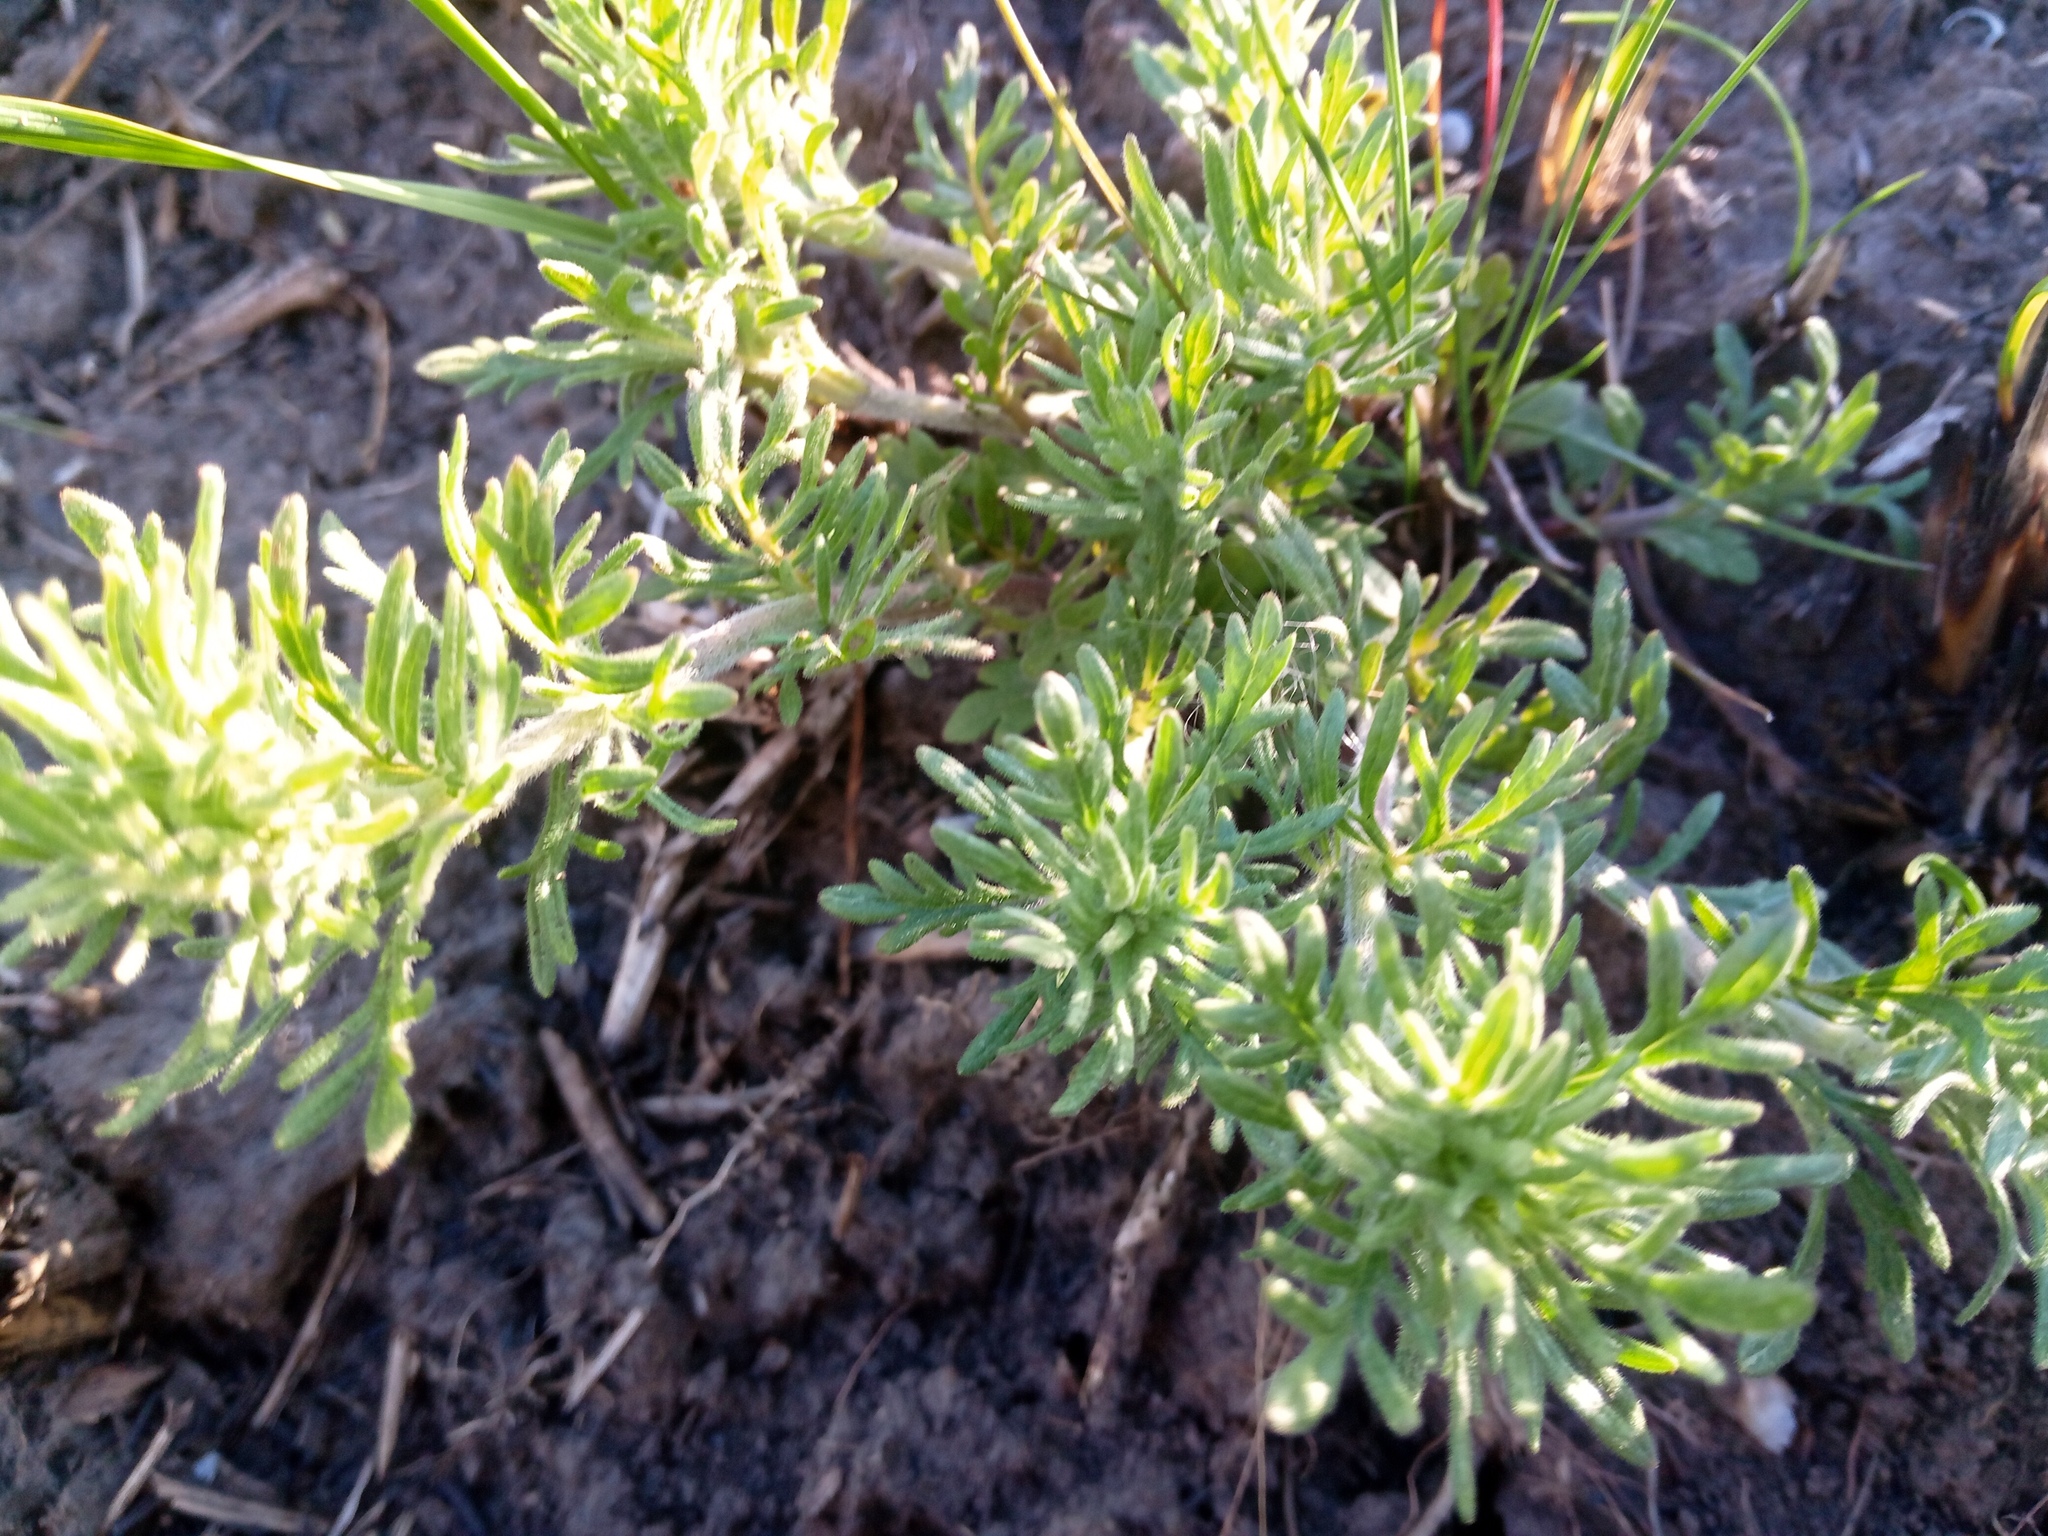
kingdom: Plantae
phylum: Tracheophyta
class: Magnoliopsida
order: Lamiales
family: Plantaginaceae
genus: Veronica
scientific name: Veronica austriaca
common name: Large speedwell
